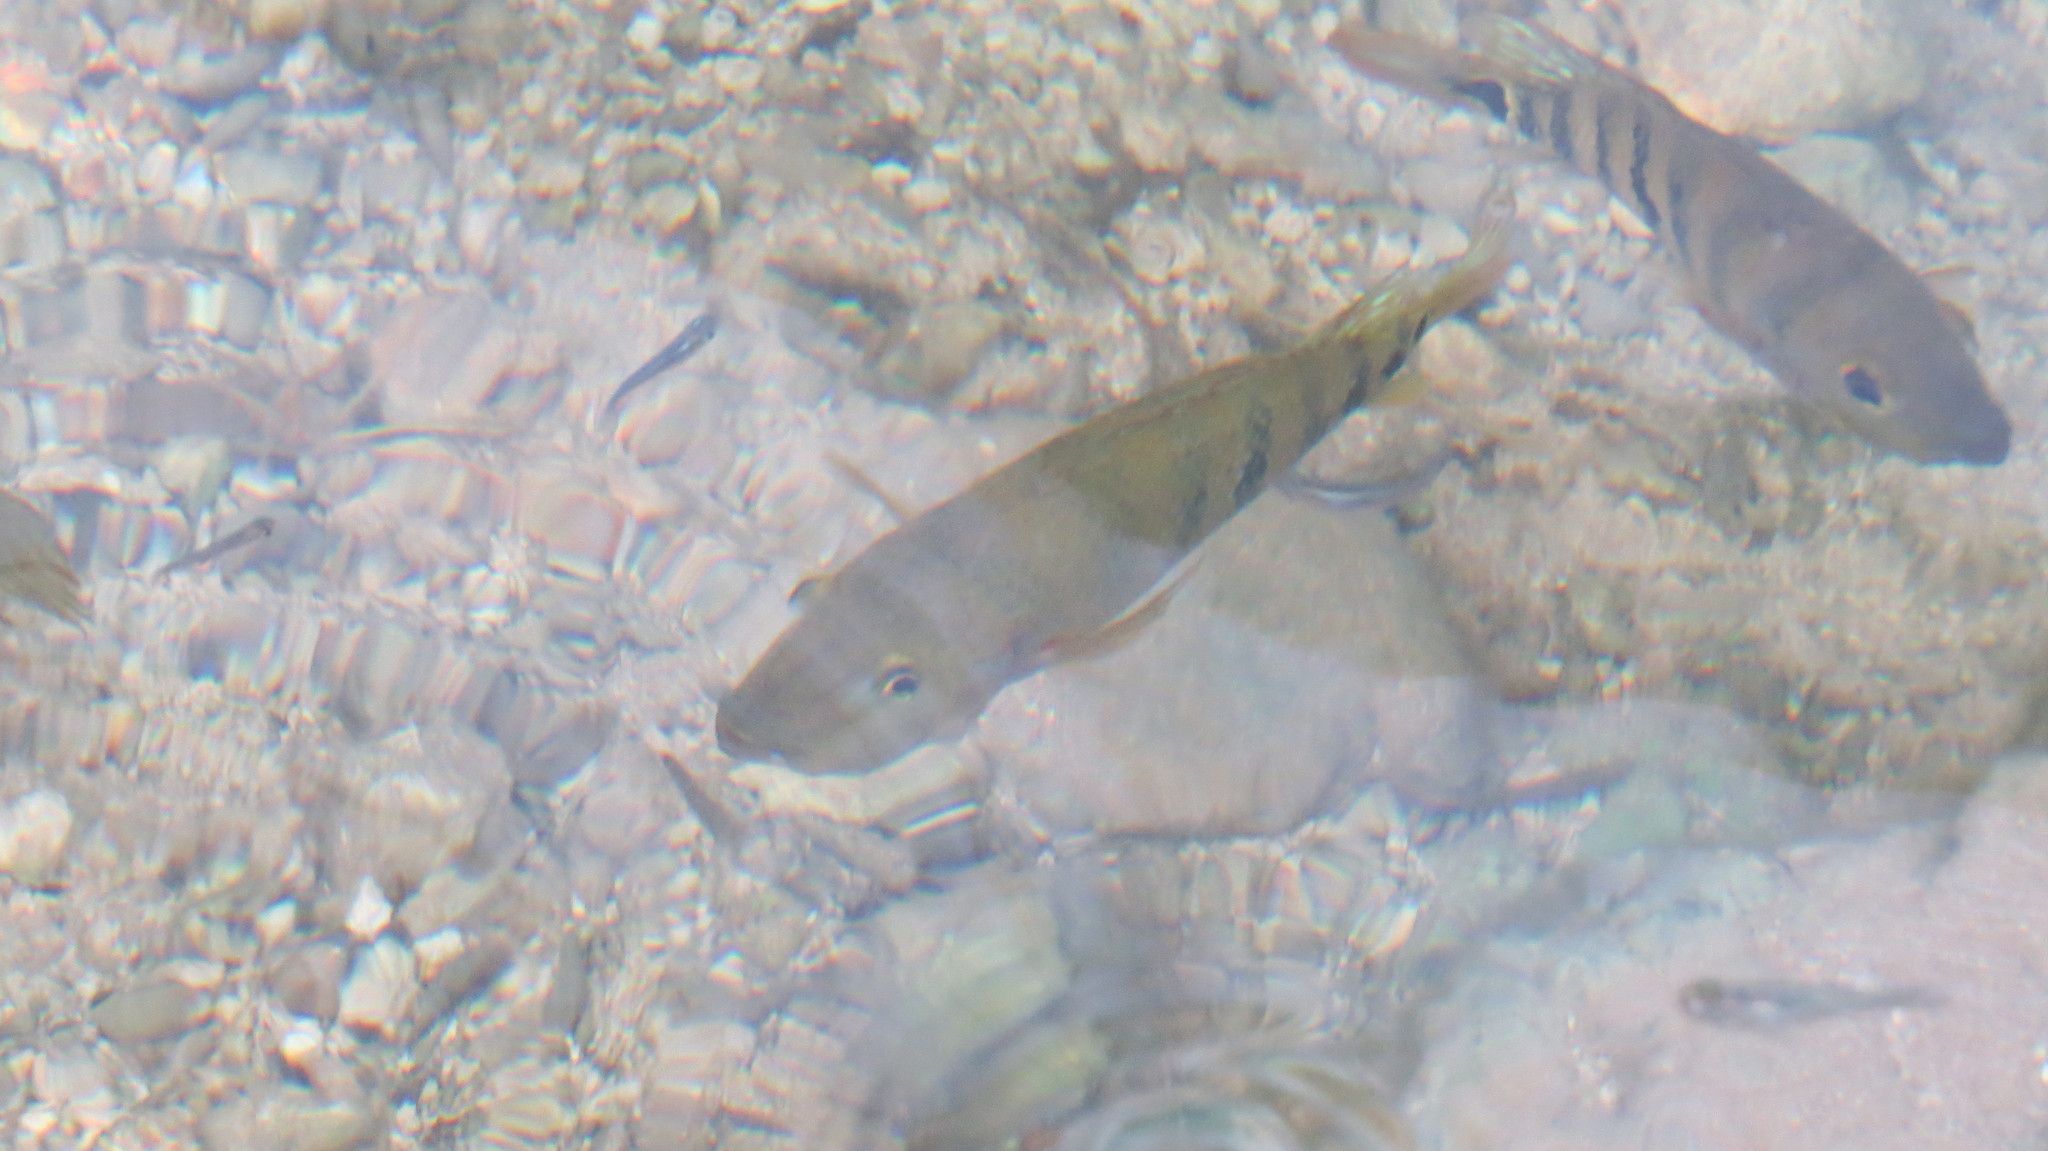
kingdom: Animalia
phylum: Chordata
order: Perciformes
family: Cichlidae
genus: Mayaheros
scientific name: Mayaheros urophthalmus
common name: Mayan cichlid
